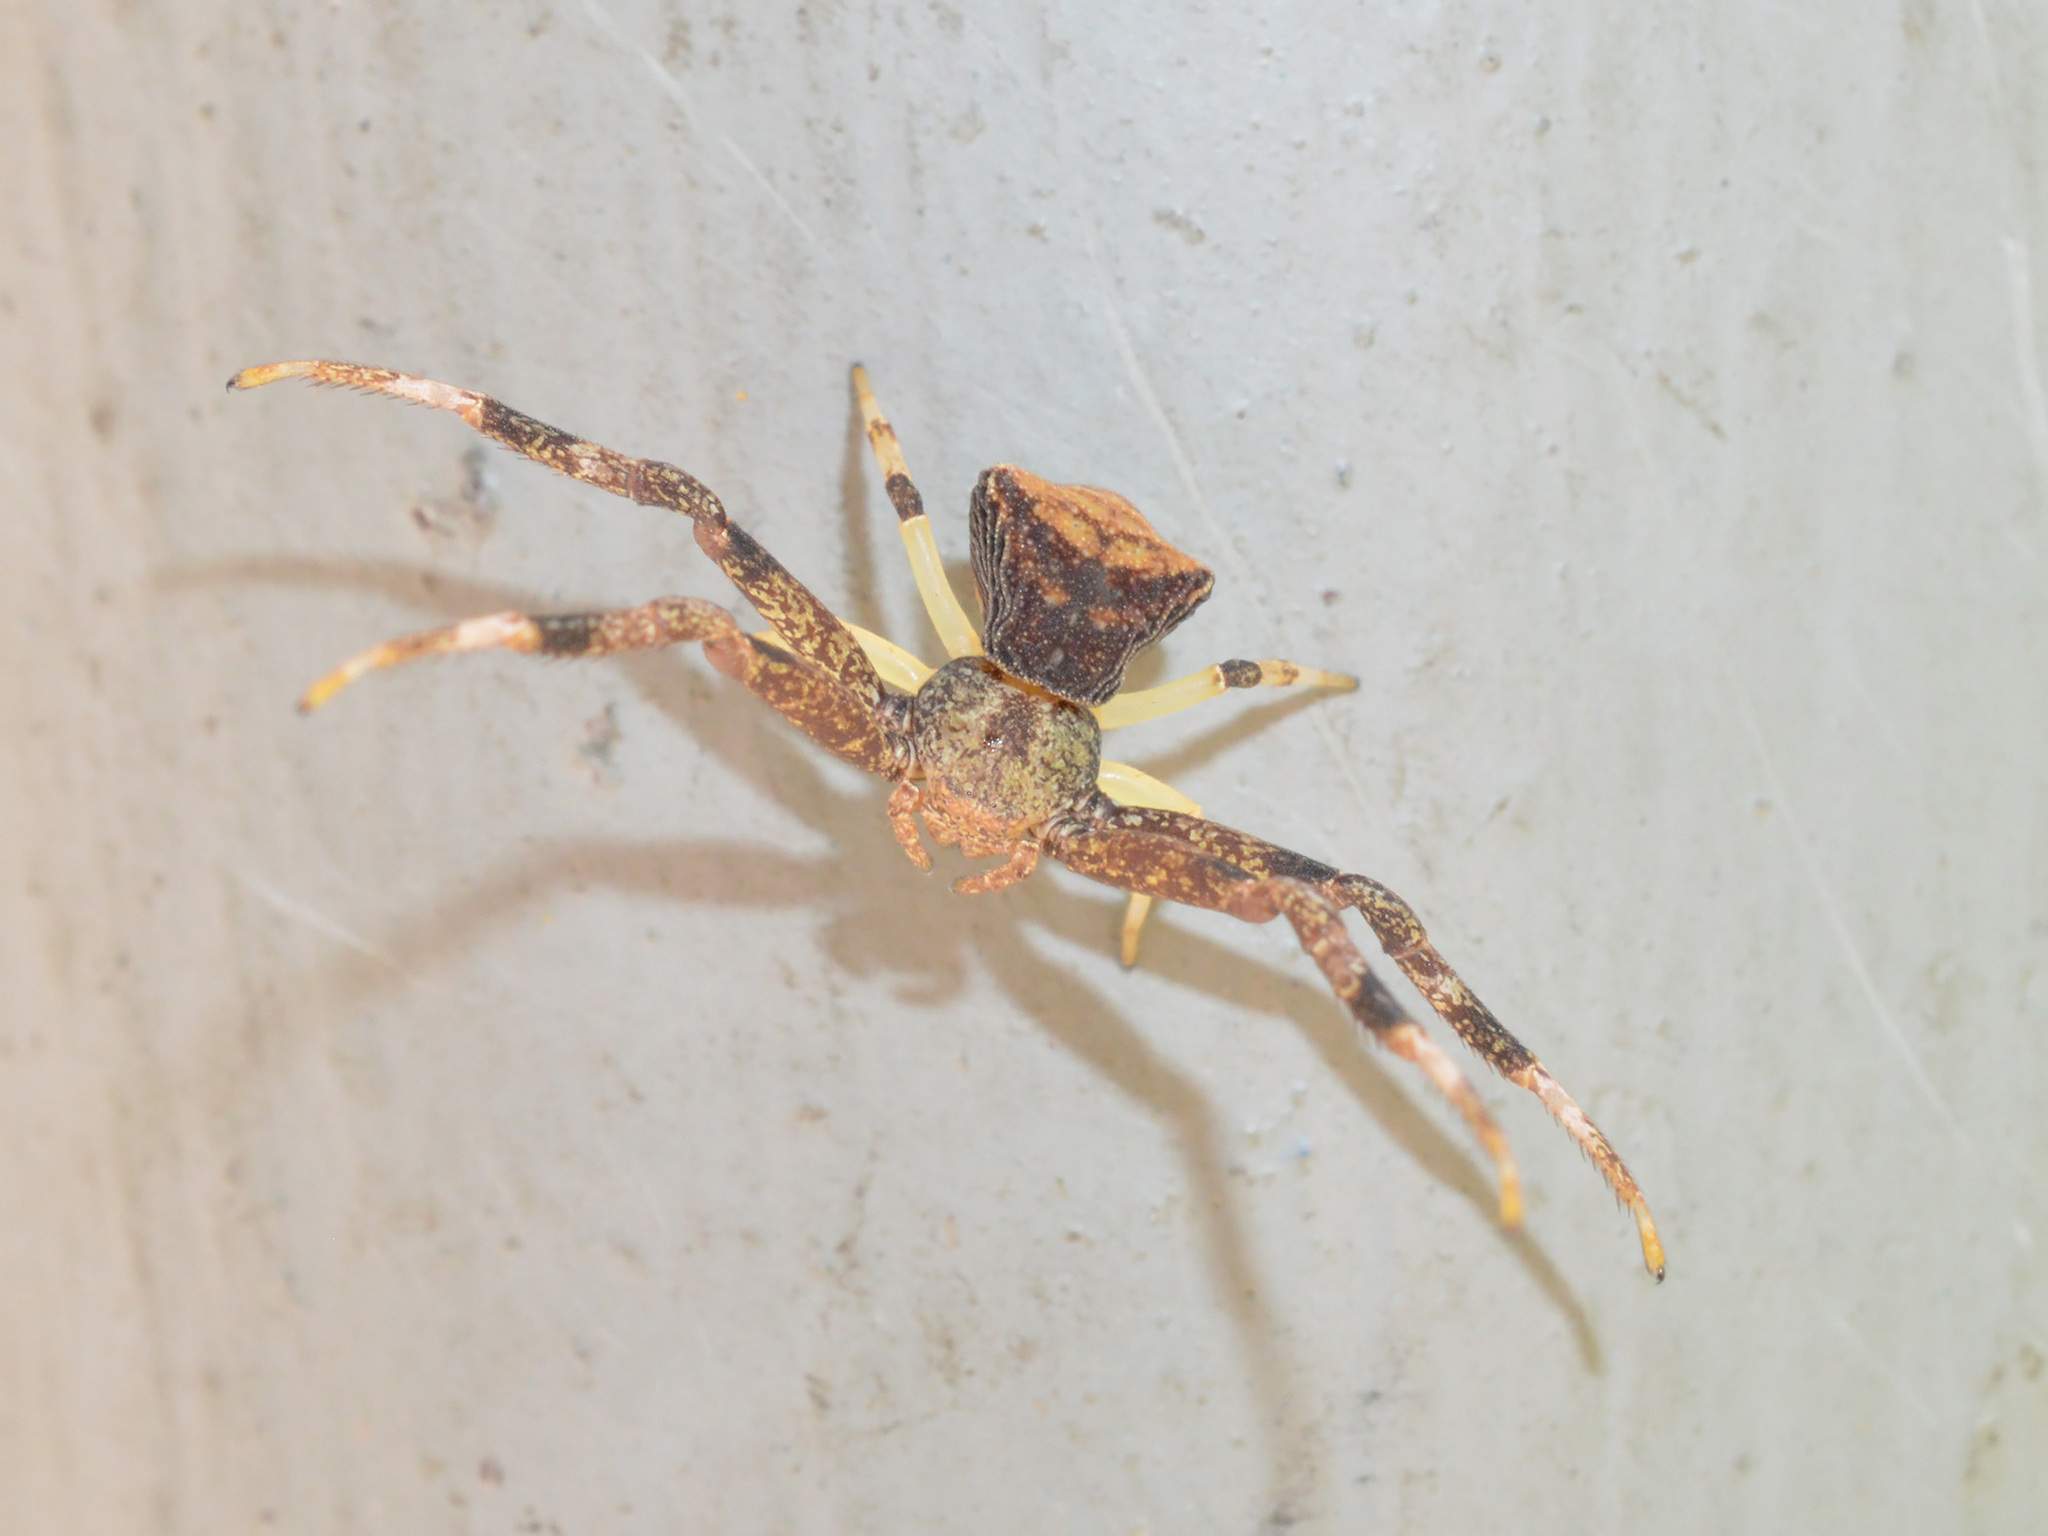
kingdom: Animalia
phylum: Arthropoda
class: Arachnida
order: Araneae
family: Thomisidae
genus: Pistius
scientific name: Pistius truncatus
